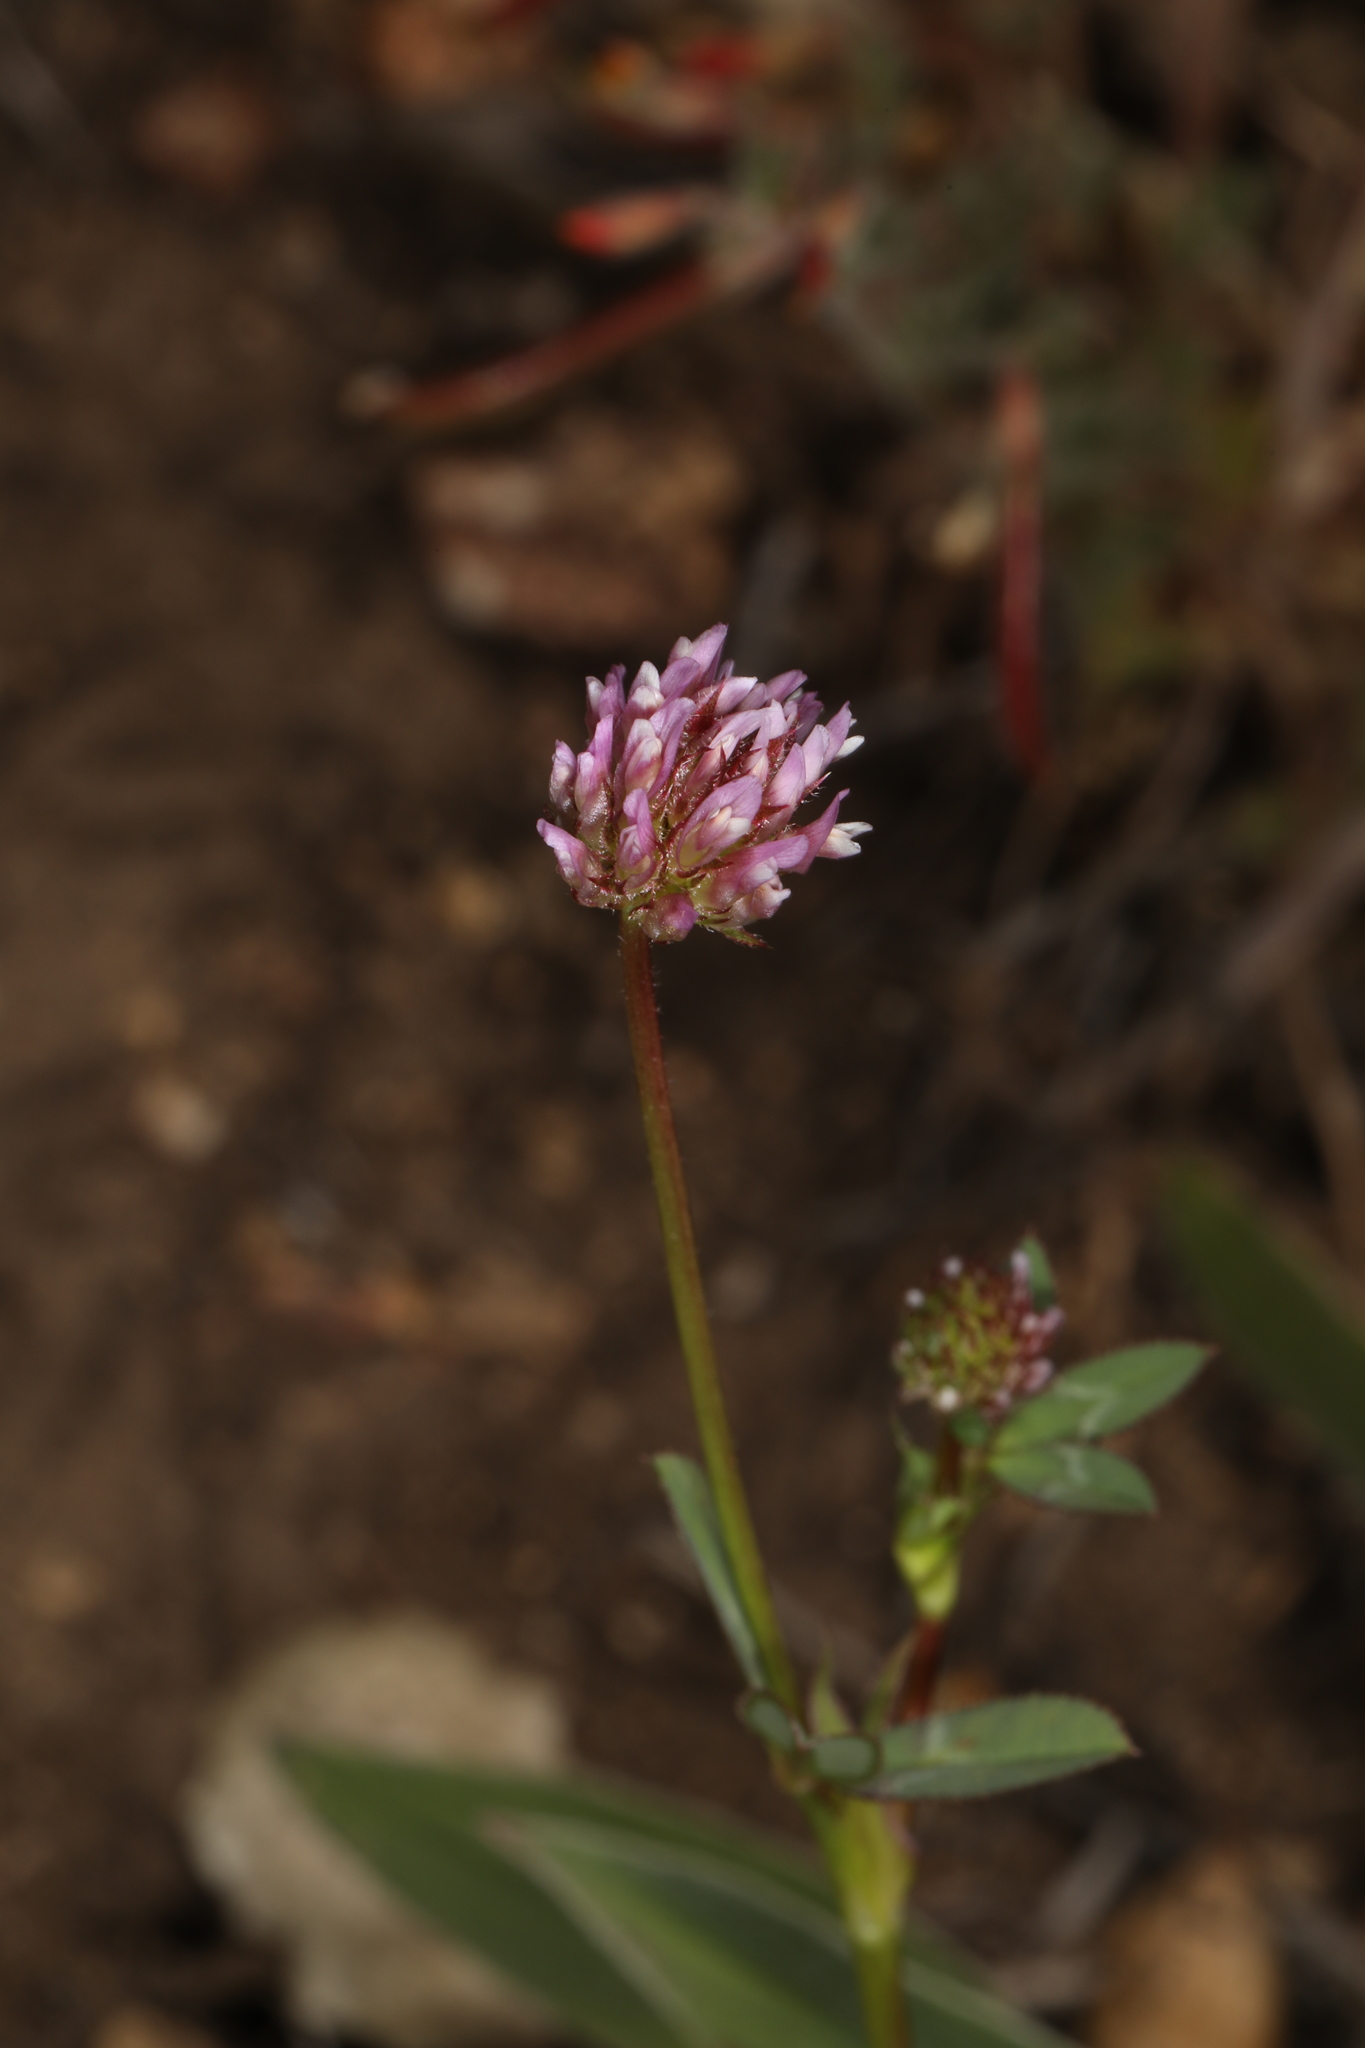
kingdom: Plantae
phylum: Tracheophyta
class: Magnoliopsida
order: Fabales
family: Fabaceae
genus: Trifolium
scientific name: Trifolium ciliolatum
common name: Foothill clover
